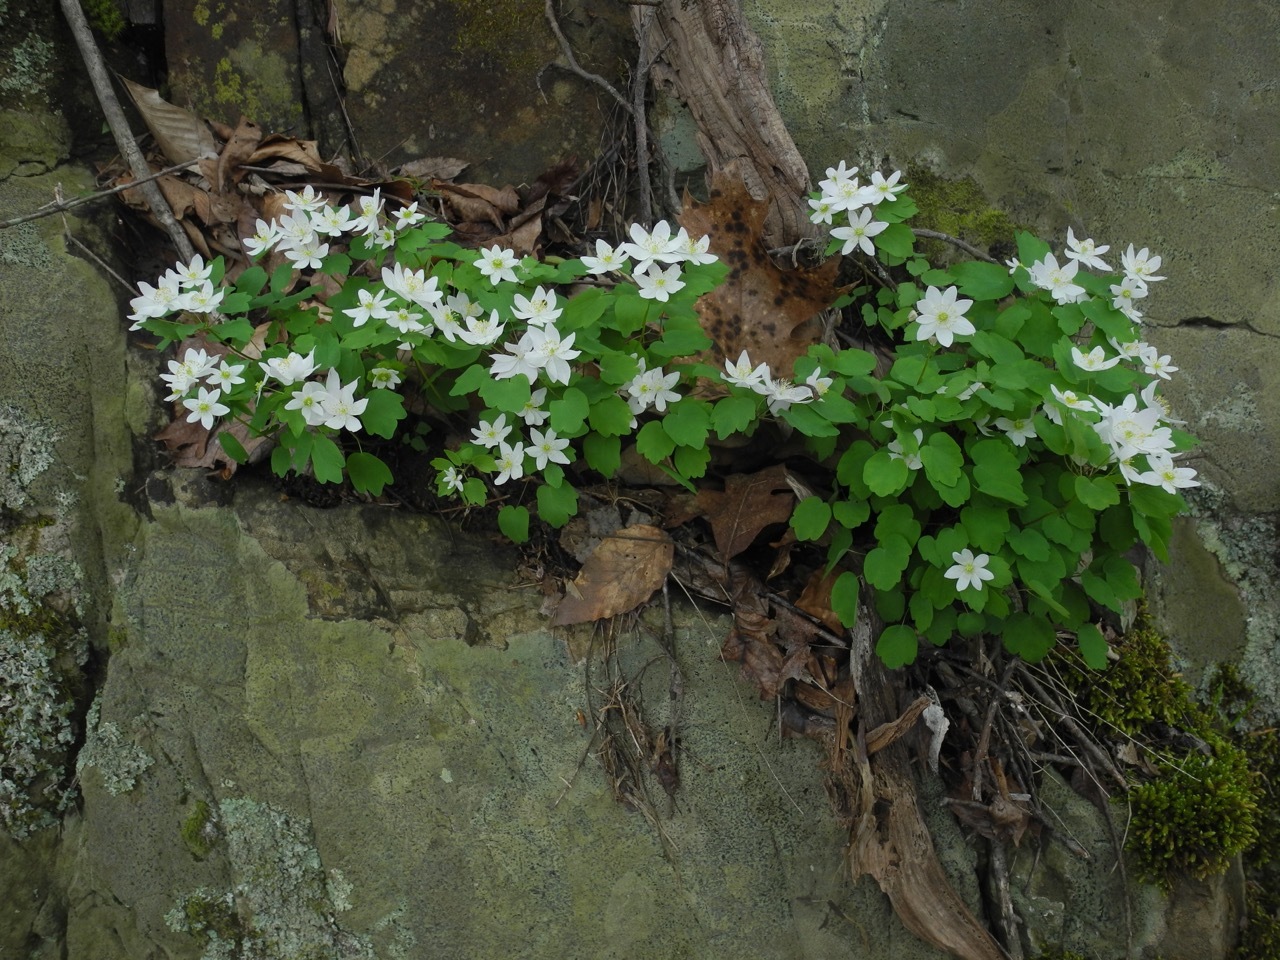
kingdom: Plantae
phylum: Tracheophyta
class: Magnoliopsida
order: Ranunculales
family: Ranunculaceae
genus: Thalictrum
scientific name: Thalictrum thalictroides
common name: Rue-anemone
